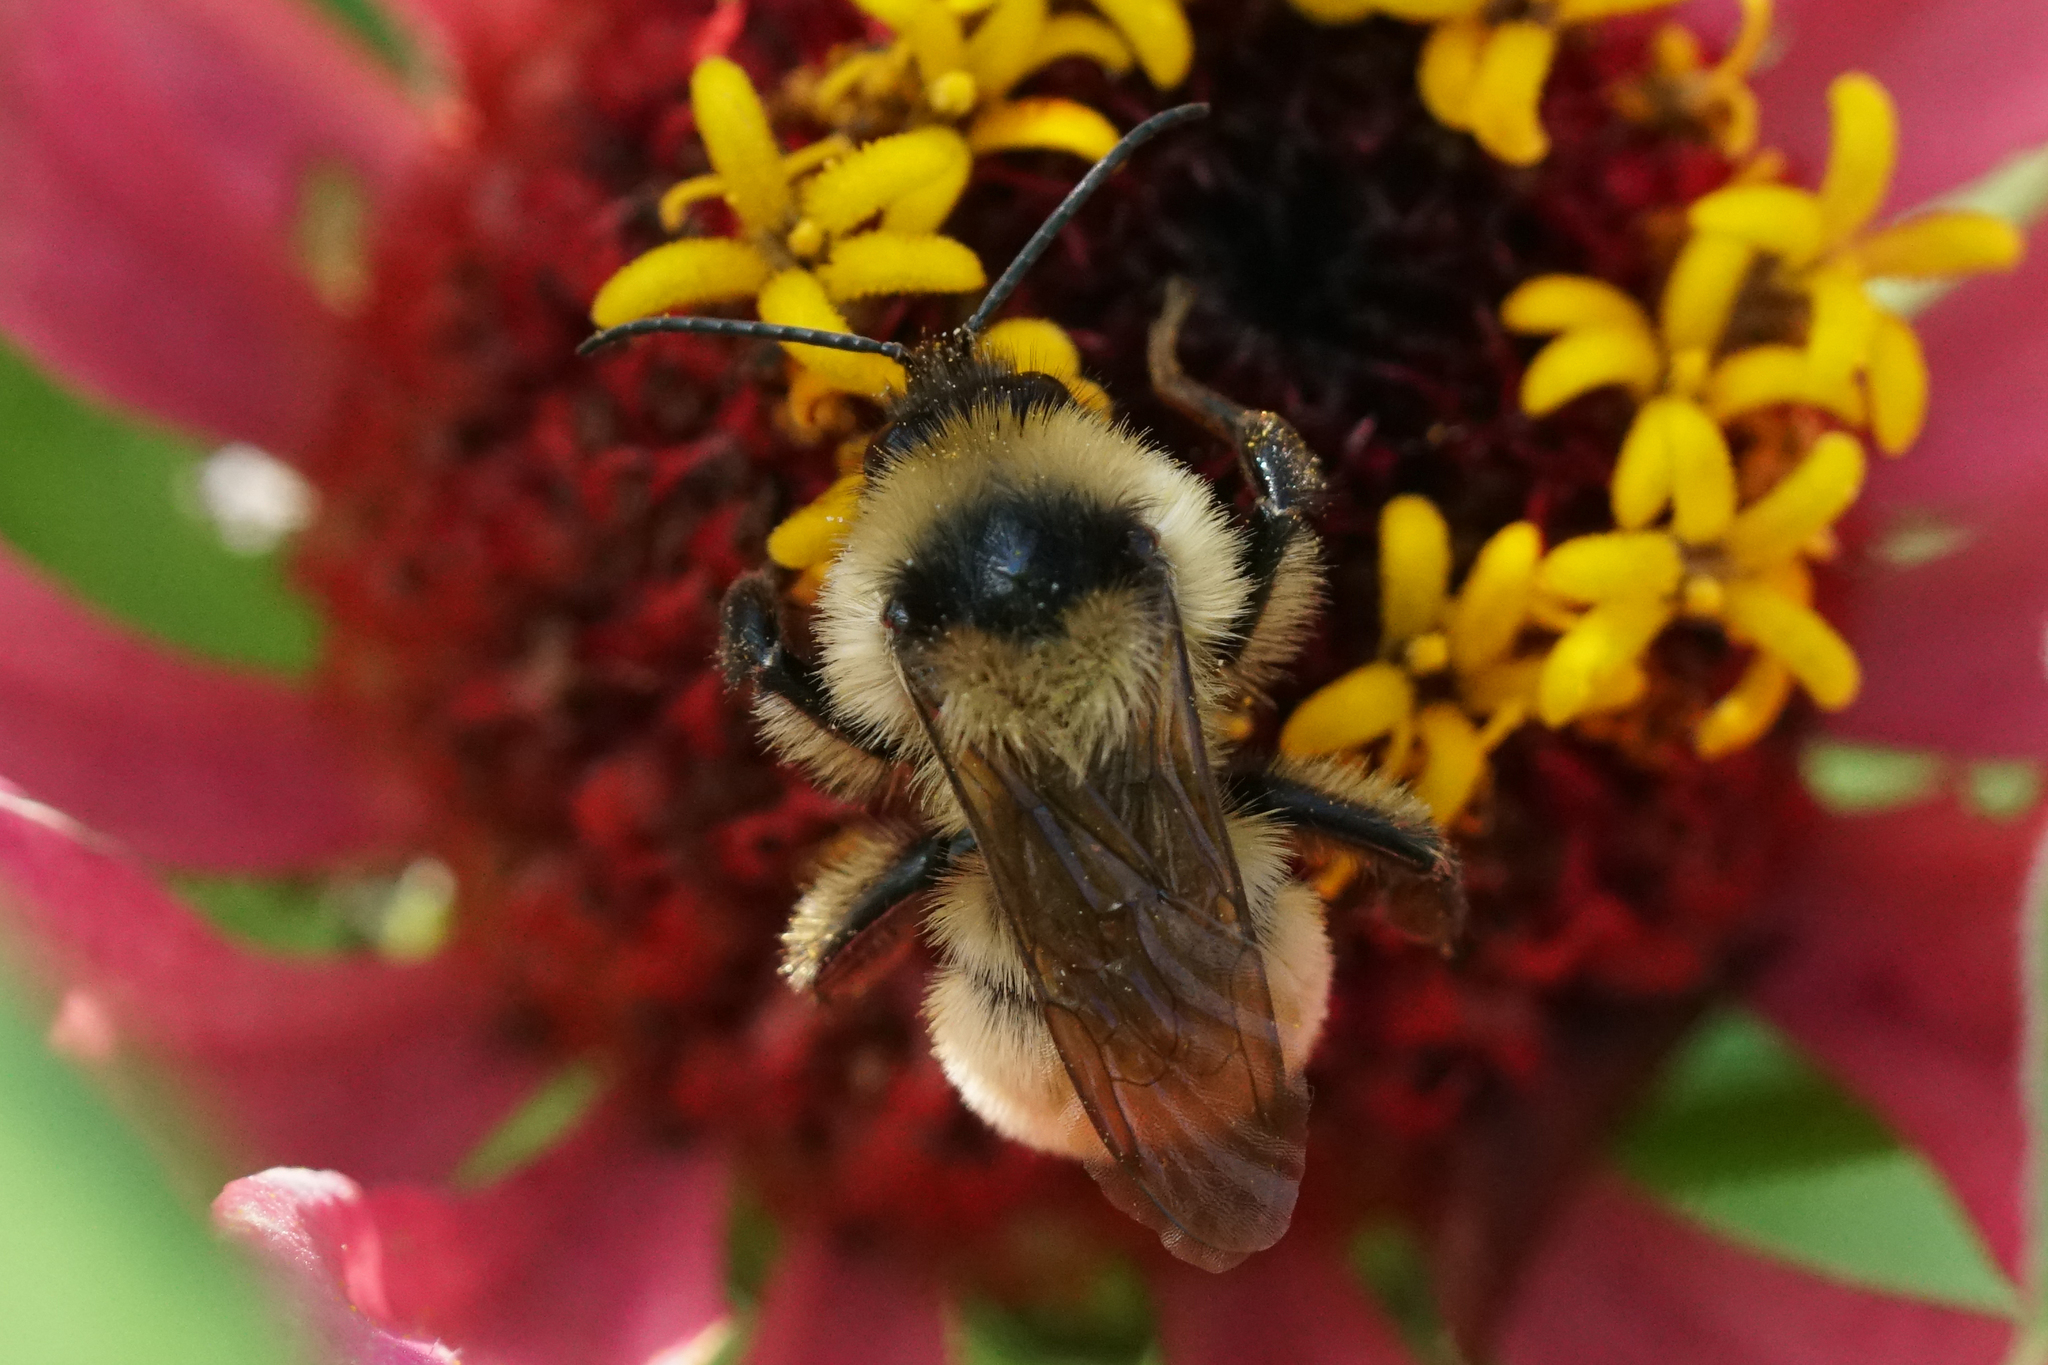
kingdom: Animalia
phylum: Arthropoda
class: Insecta
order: Hymenoptera
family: Apidae
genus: Bombus
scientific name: Bombus fervidus
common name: Yellow bumble bee
